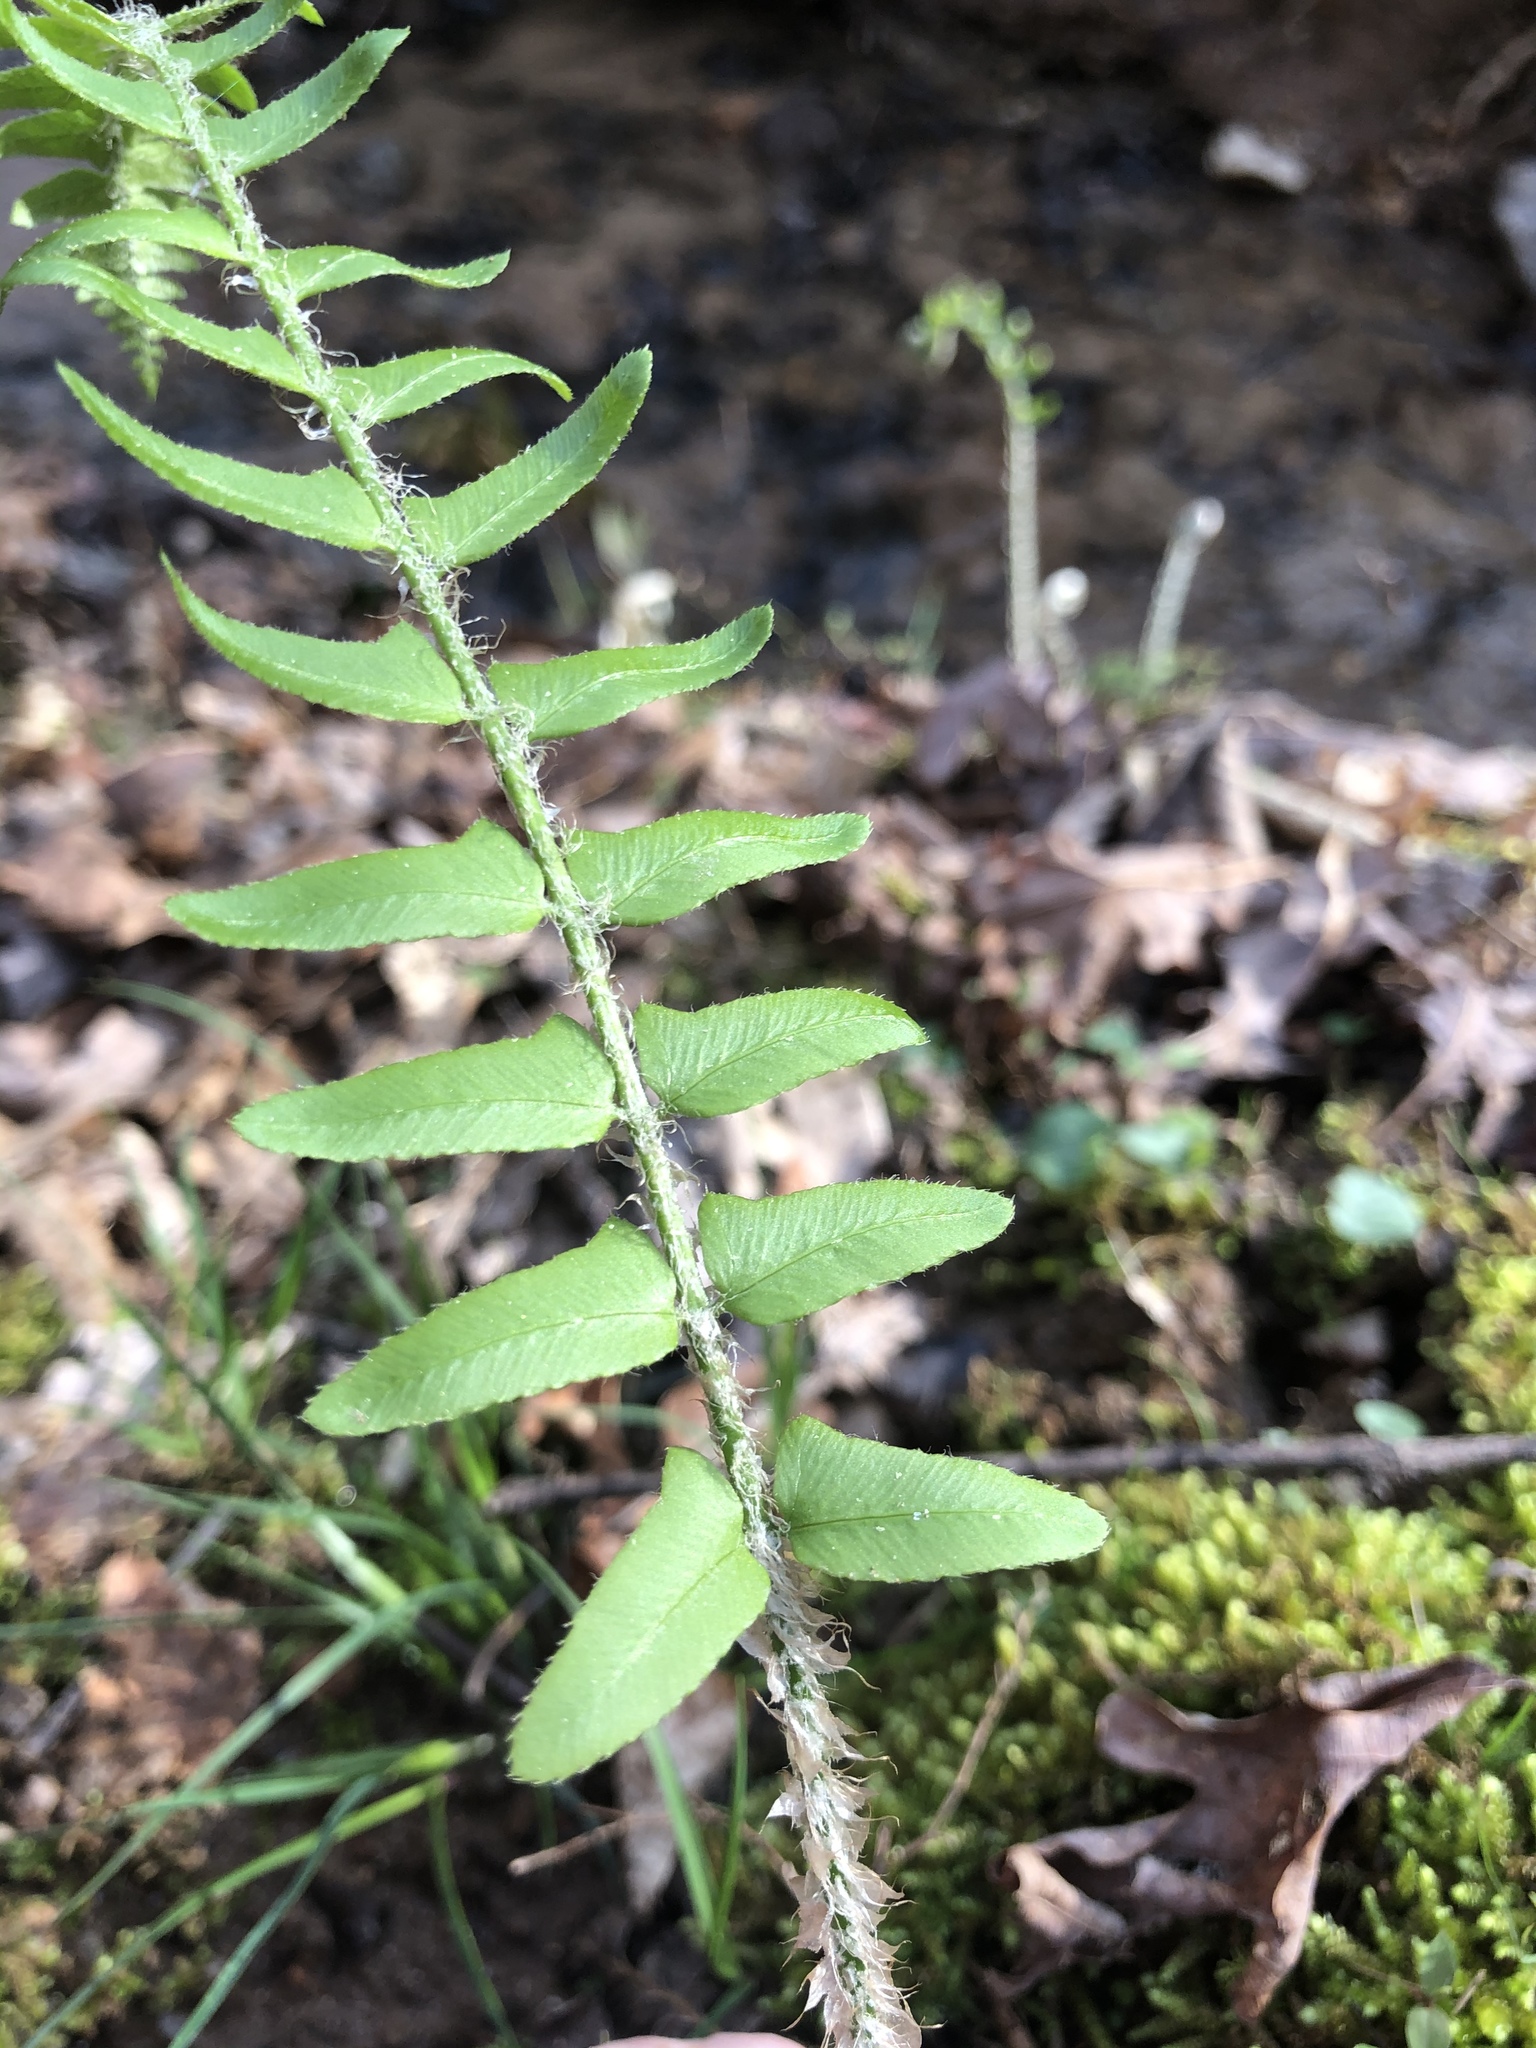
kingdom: Plantae
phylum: Tracheophyta
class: Polypodiopsida
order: Polypodiales
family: Dryopteridaceae
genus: Polystichum
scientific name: Polystichum acrostichoides
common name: Christmas fern
